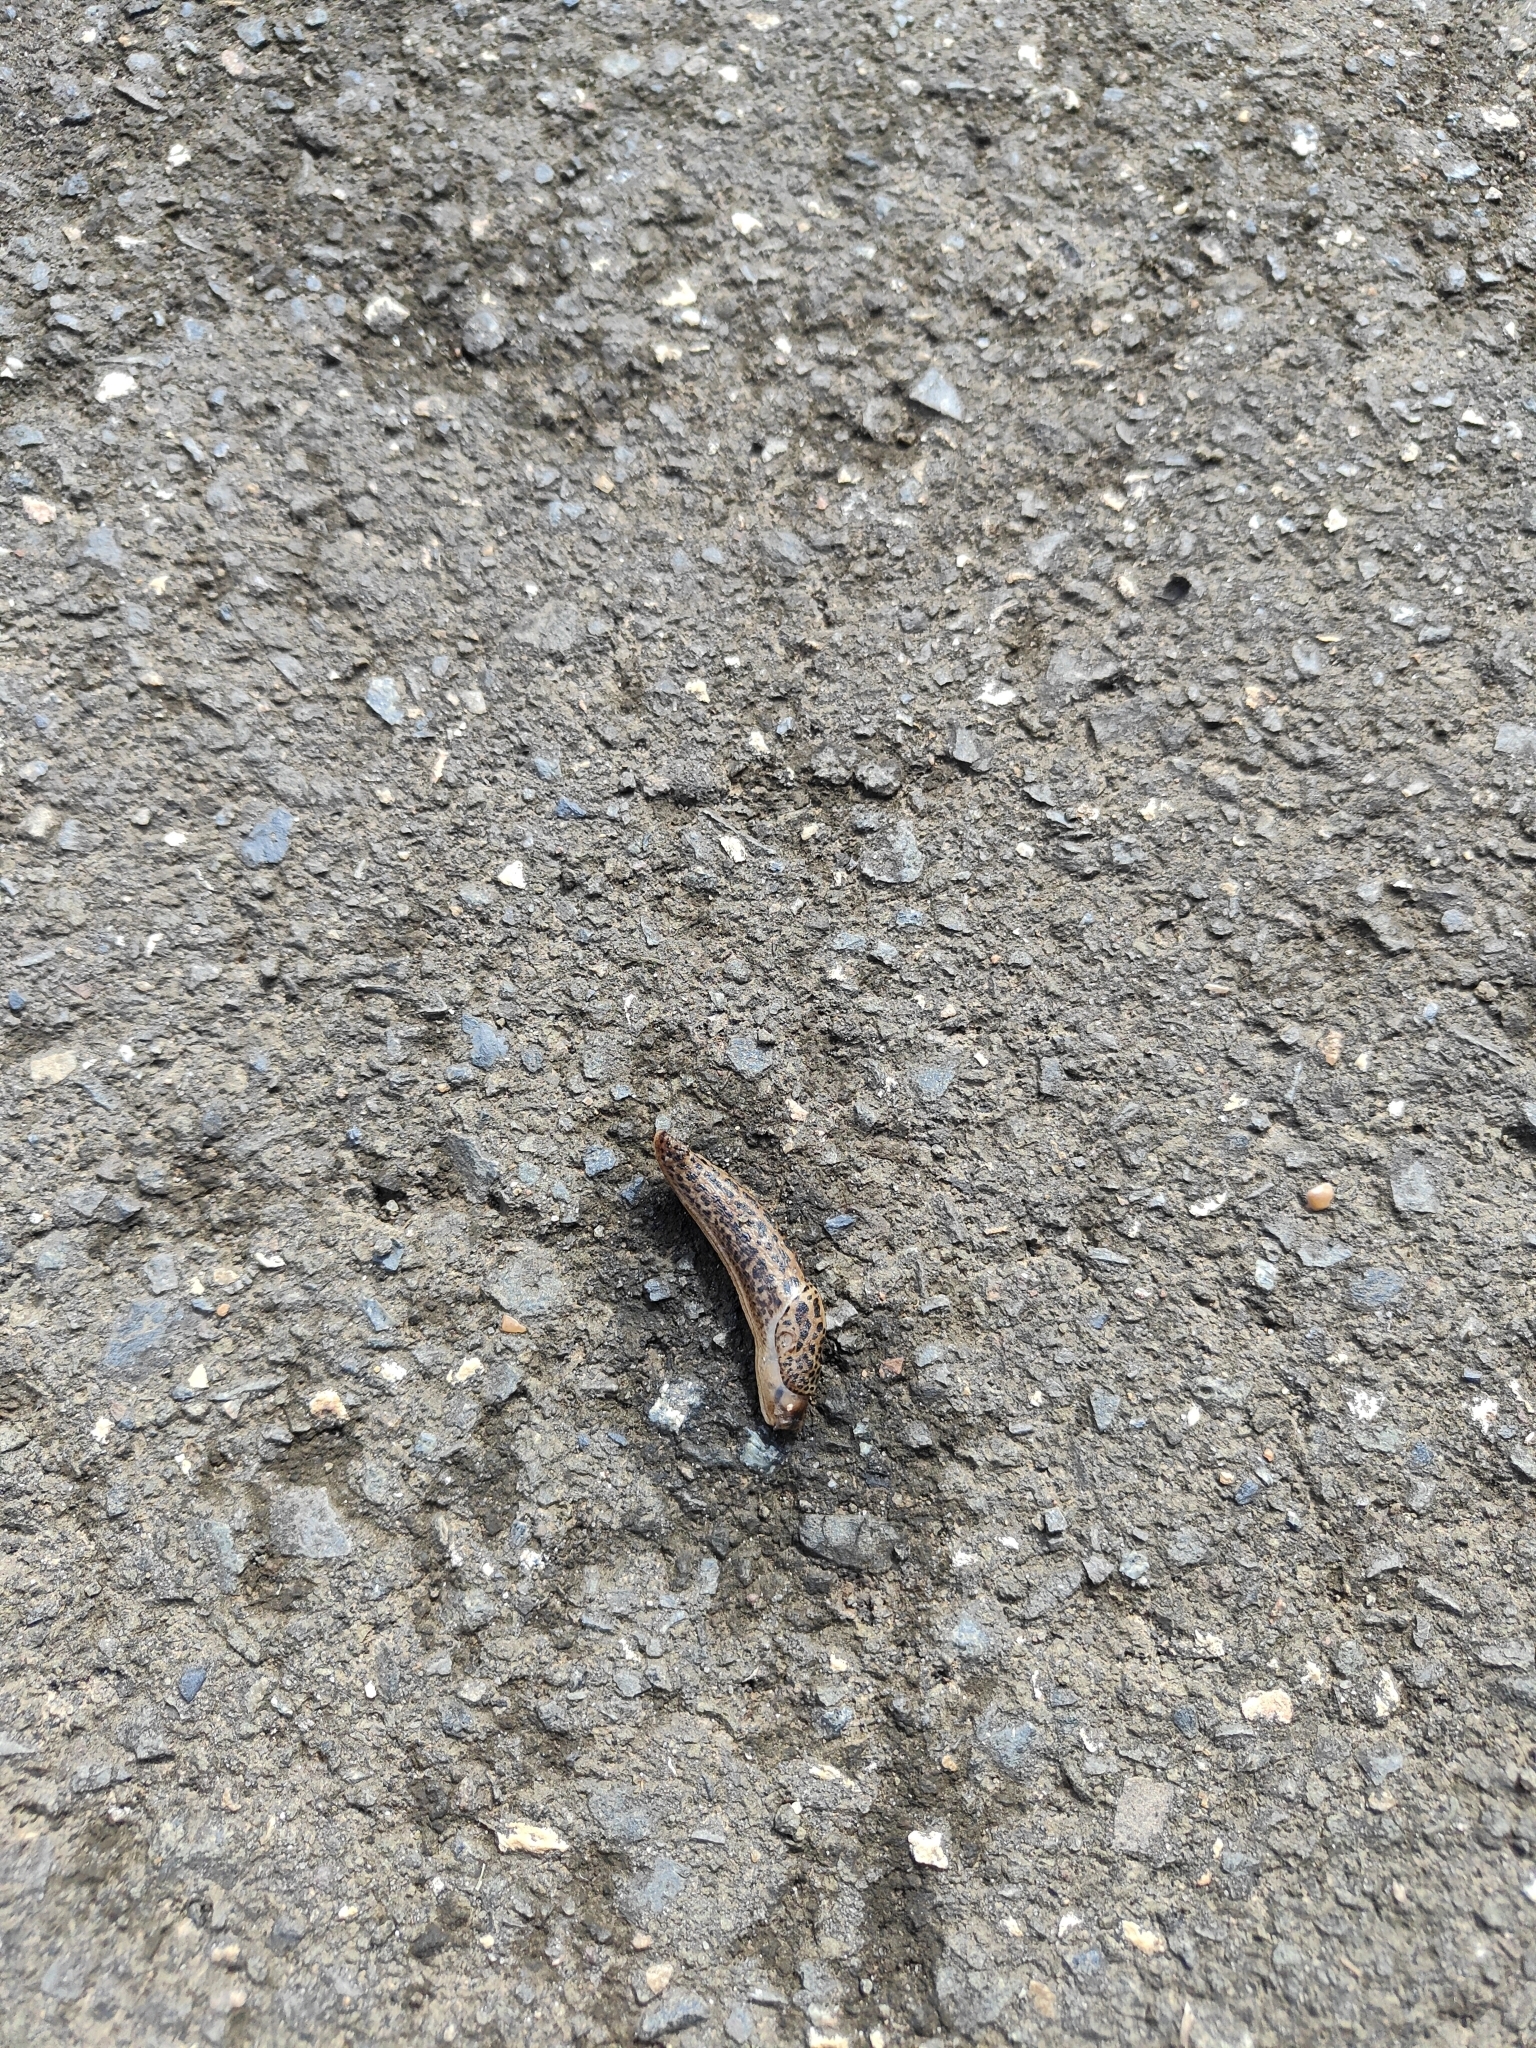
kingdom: Animalia
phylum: Mollusca
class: Gastropoda
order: Stylommatophora
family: Limacidae
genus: Limax
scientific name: Limax maximus
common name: Great grey slug
